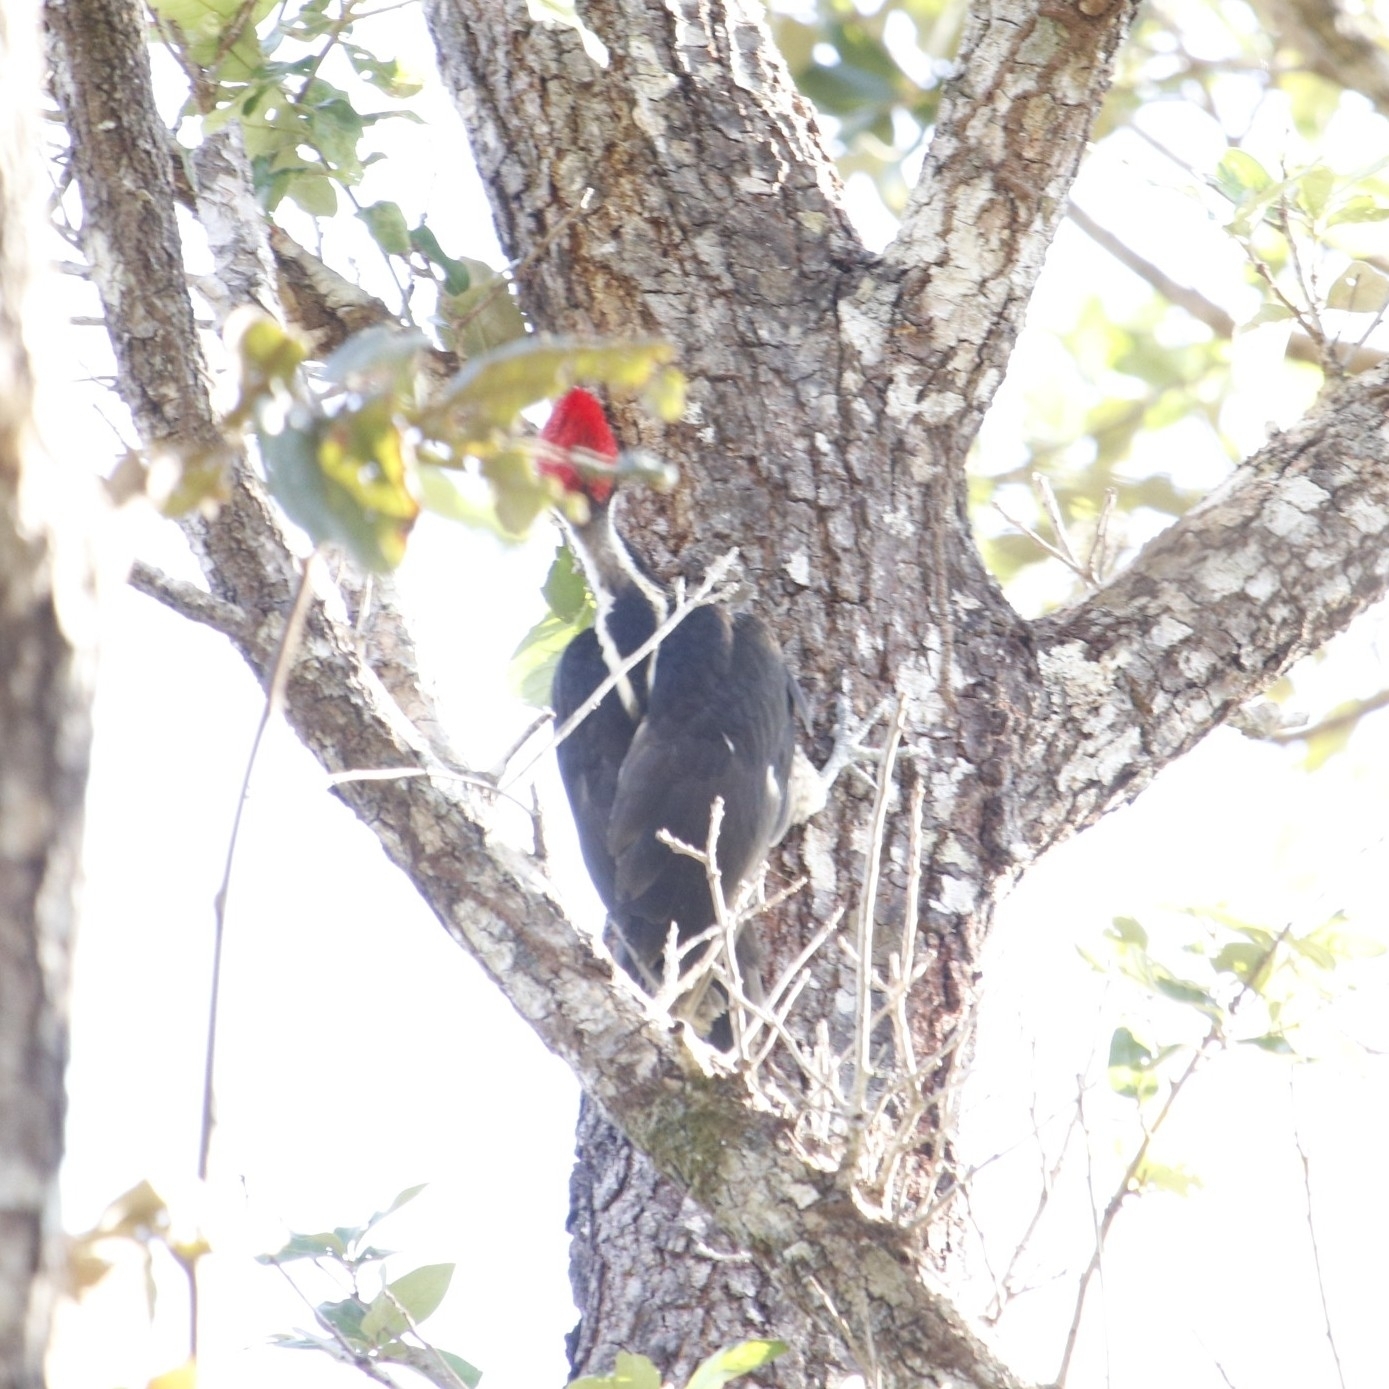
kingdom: Animalia
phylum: Chordata
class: Aves
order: Piciformes
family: Picidae
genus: Campephilus
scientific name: Campephilus guatemalensis
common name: Pale-billed woodpecker
